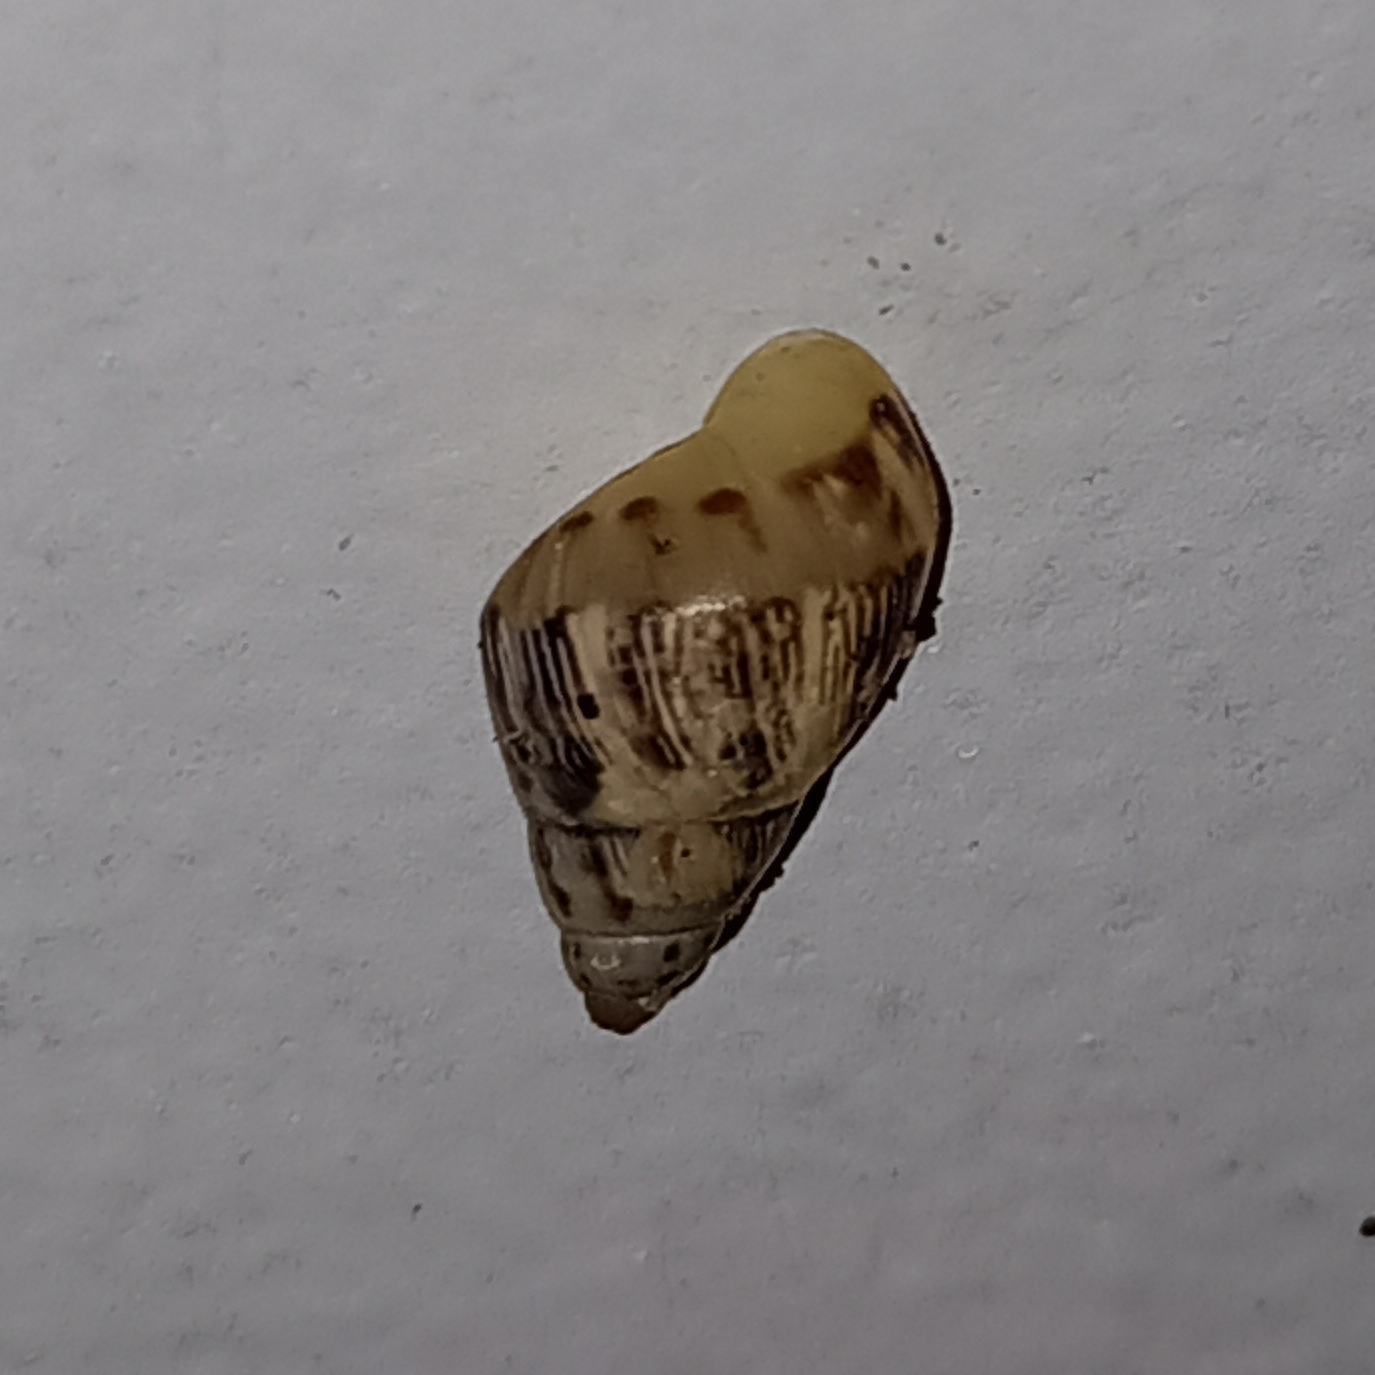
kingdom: Animalia
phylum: Mollusca
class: Gastropoda
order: Stylommatophora
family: Bulimulidae
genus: Drymaeus
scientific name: Drymaeus papyraceus
